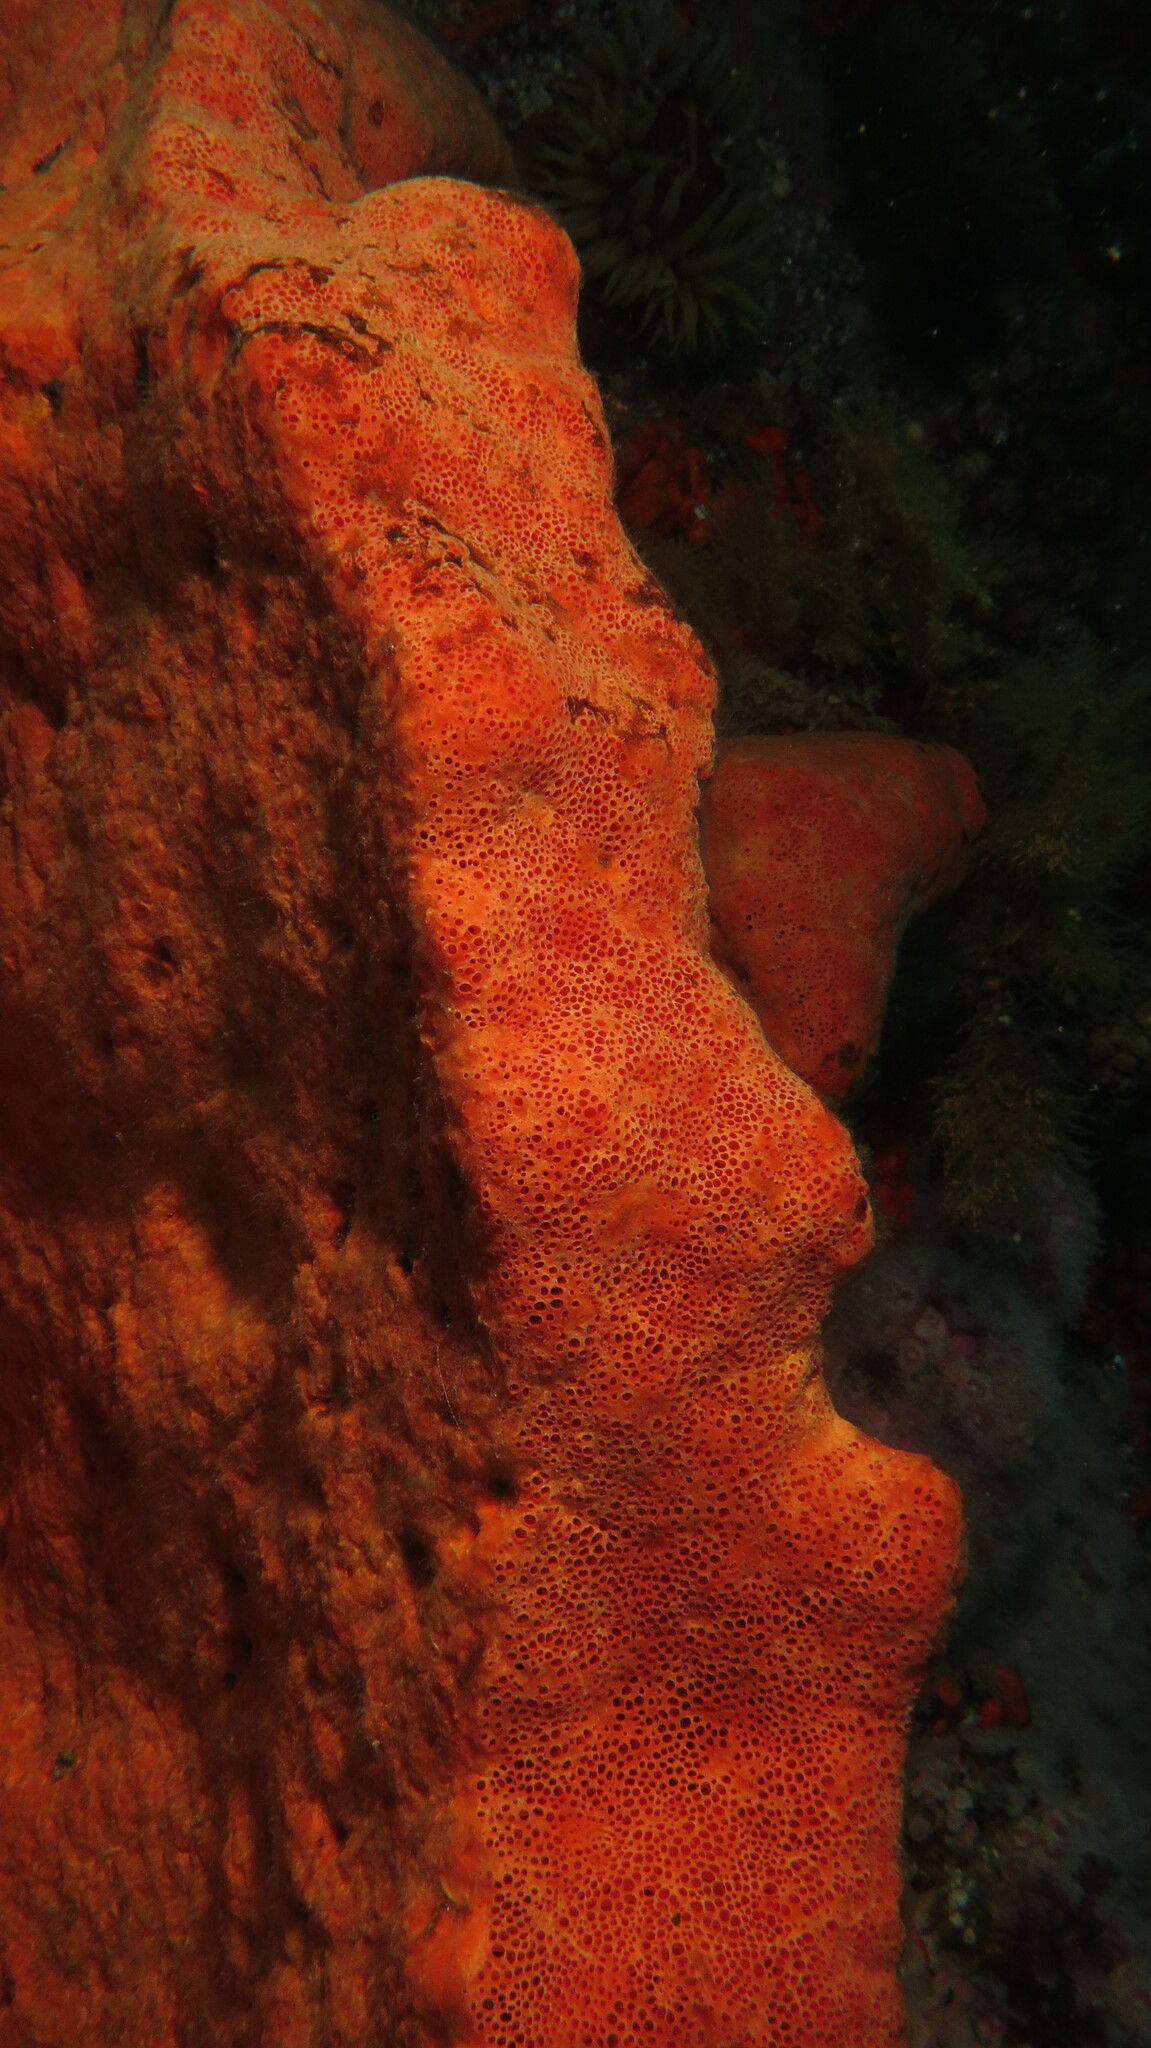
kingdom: Animalia
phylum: Porifera
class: Demospongiae
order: Trachycladida
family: Trachycladidae
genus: Trachycladus
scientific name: Trachycladus spinispirulifer
